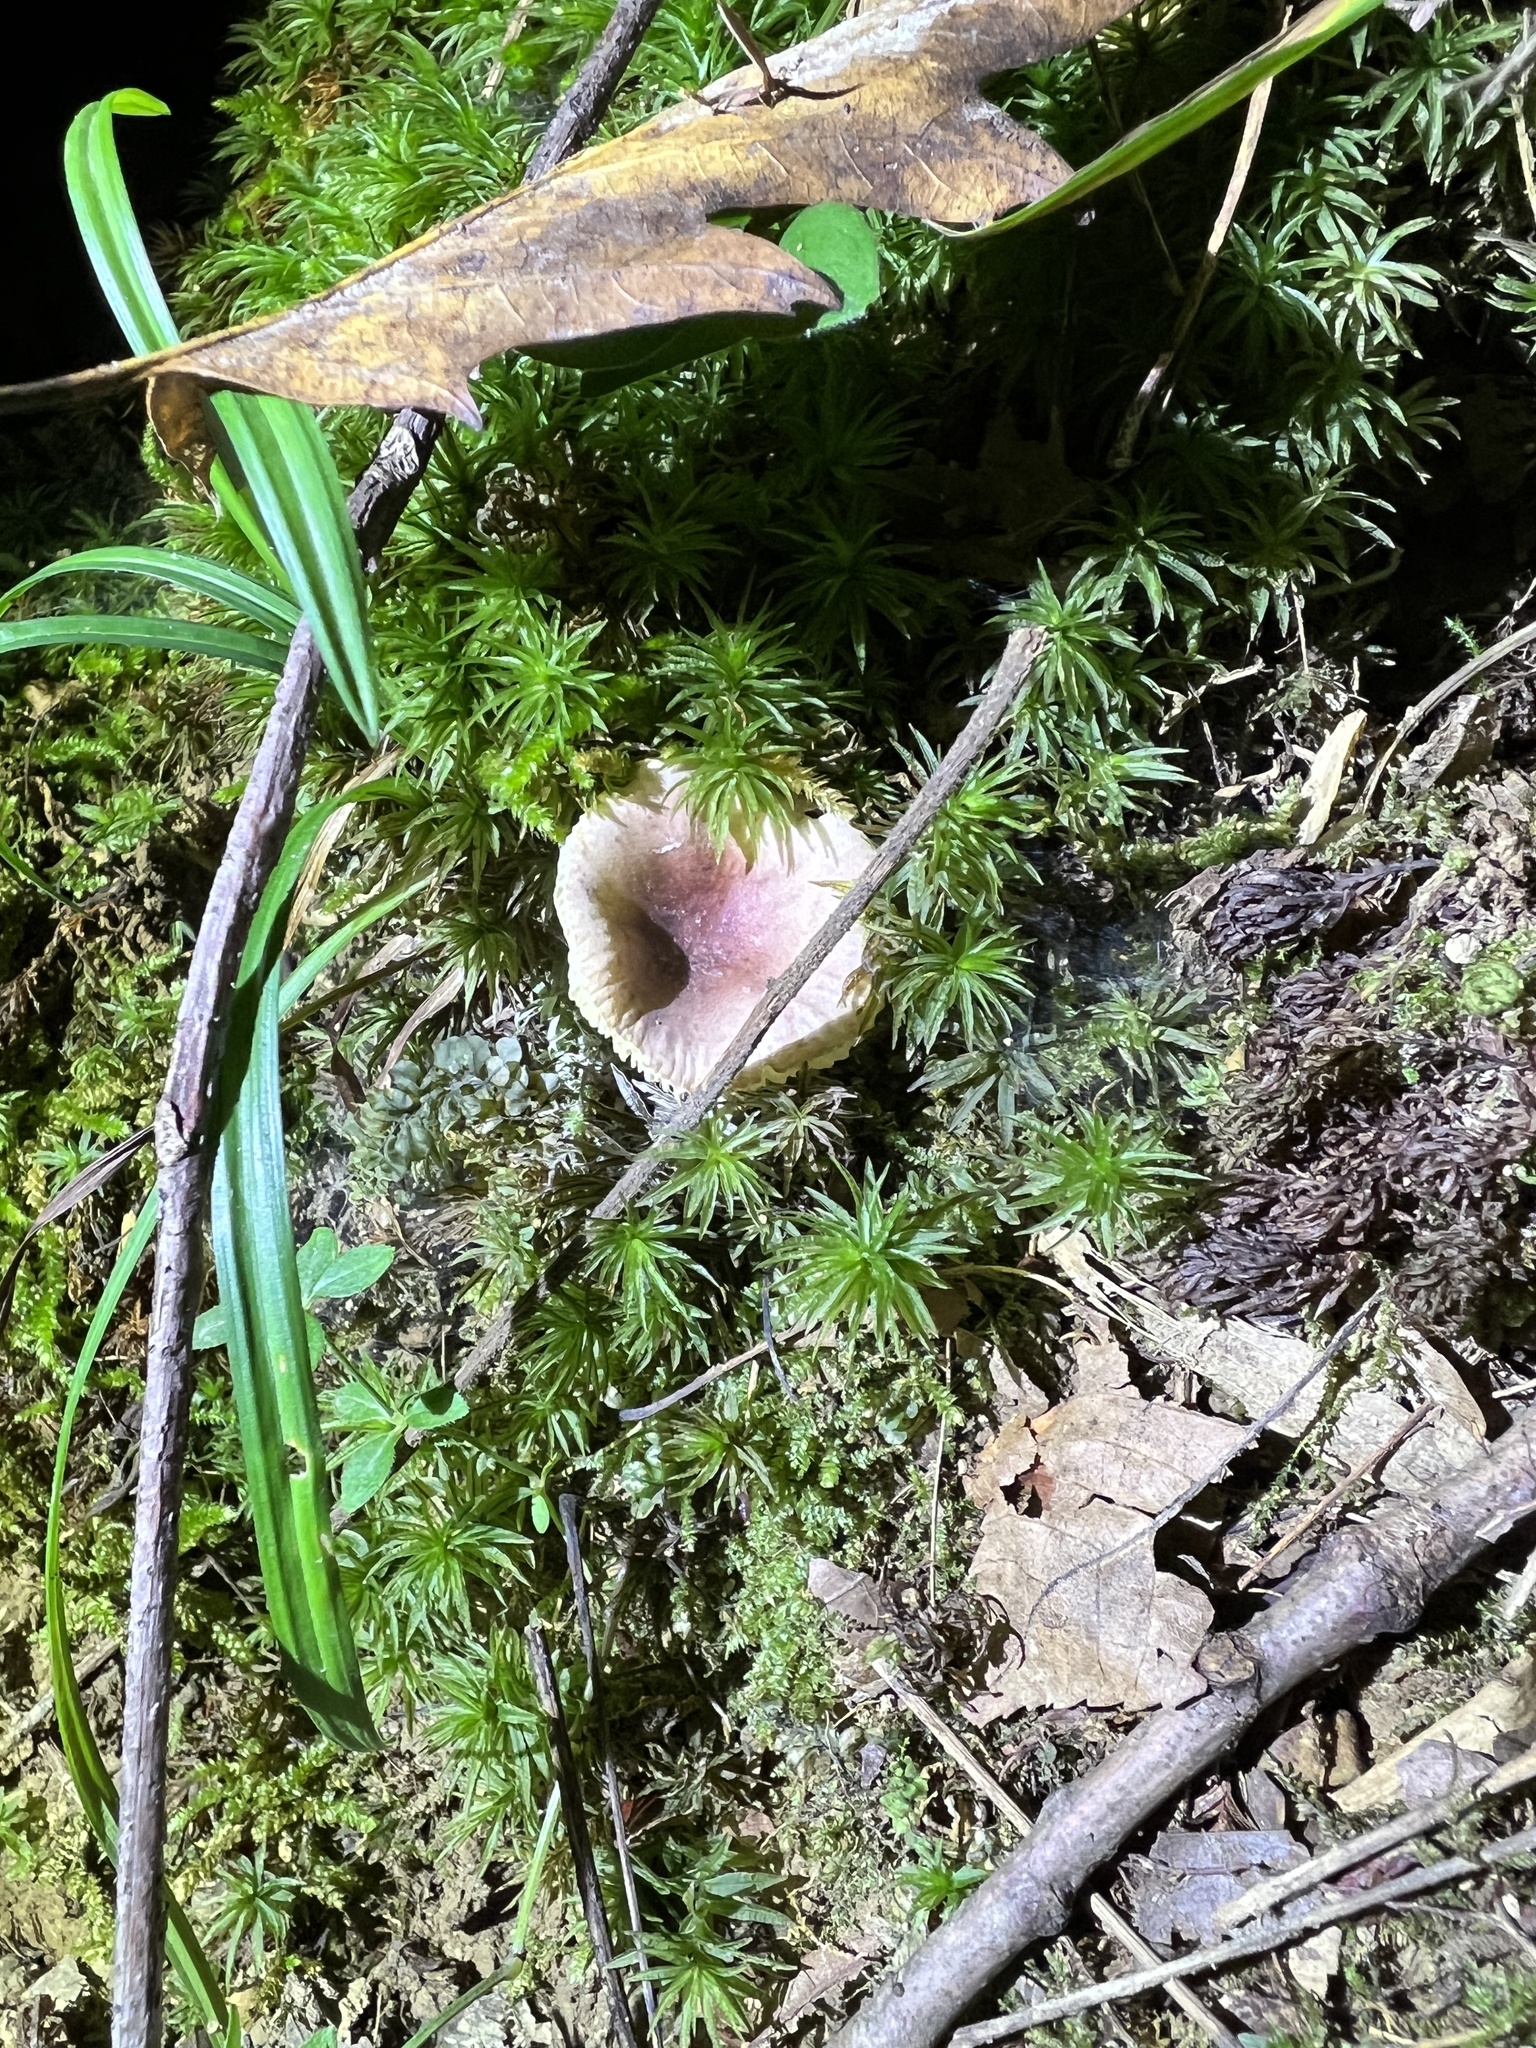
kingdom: Fungi
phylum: Basidiomycota
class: Agaricomycetes
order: Russulales
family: Russulaceae
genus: Russula
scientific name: Russula cremeirosea
